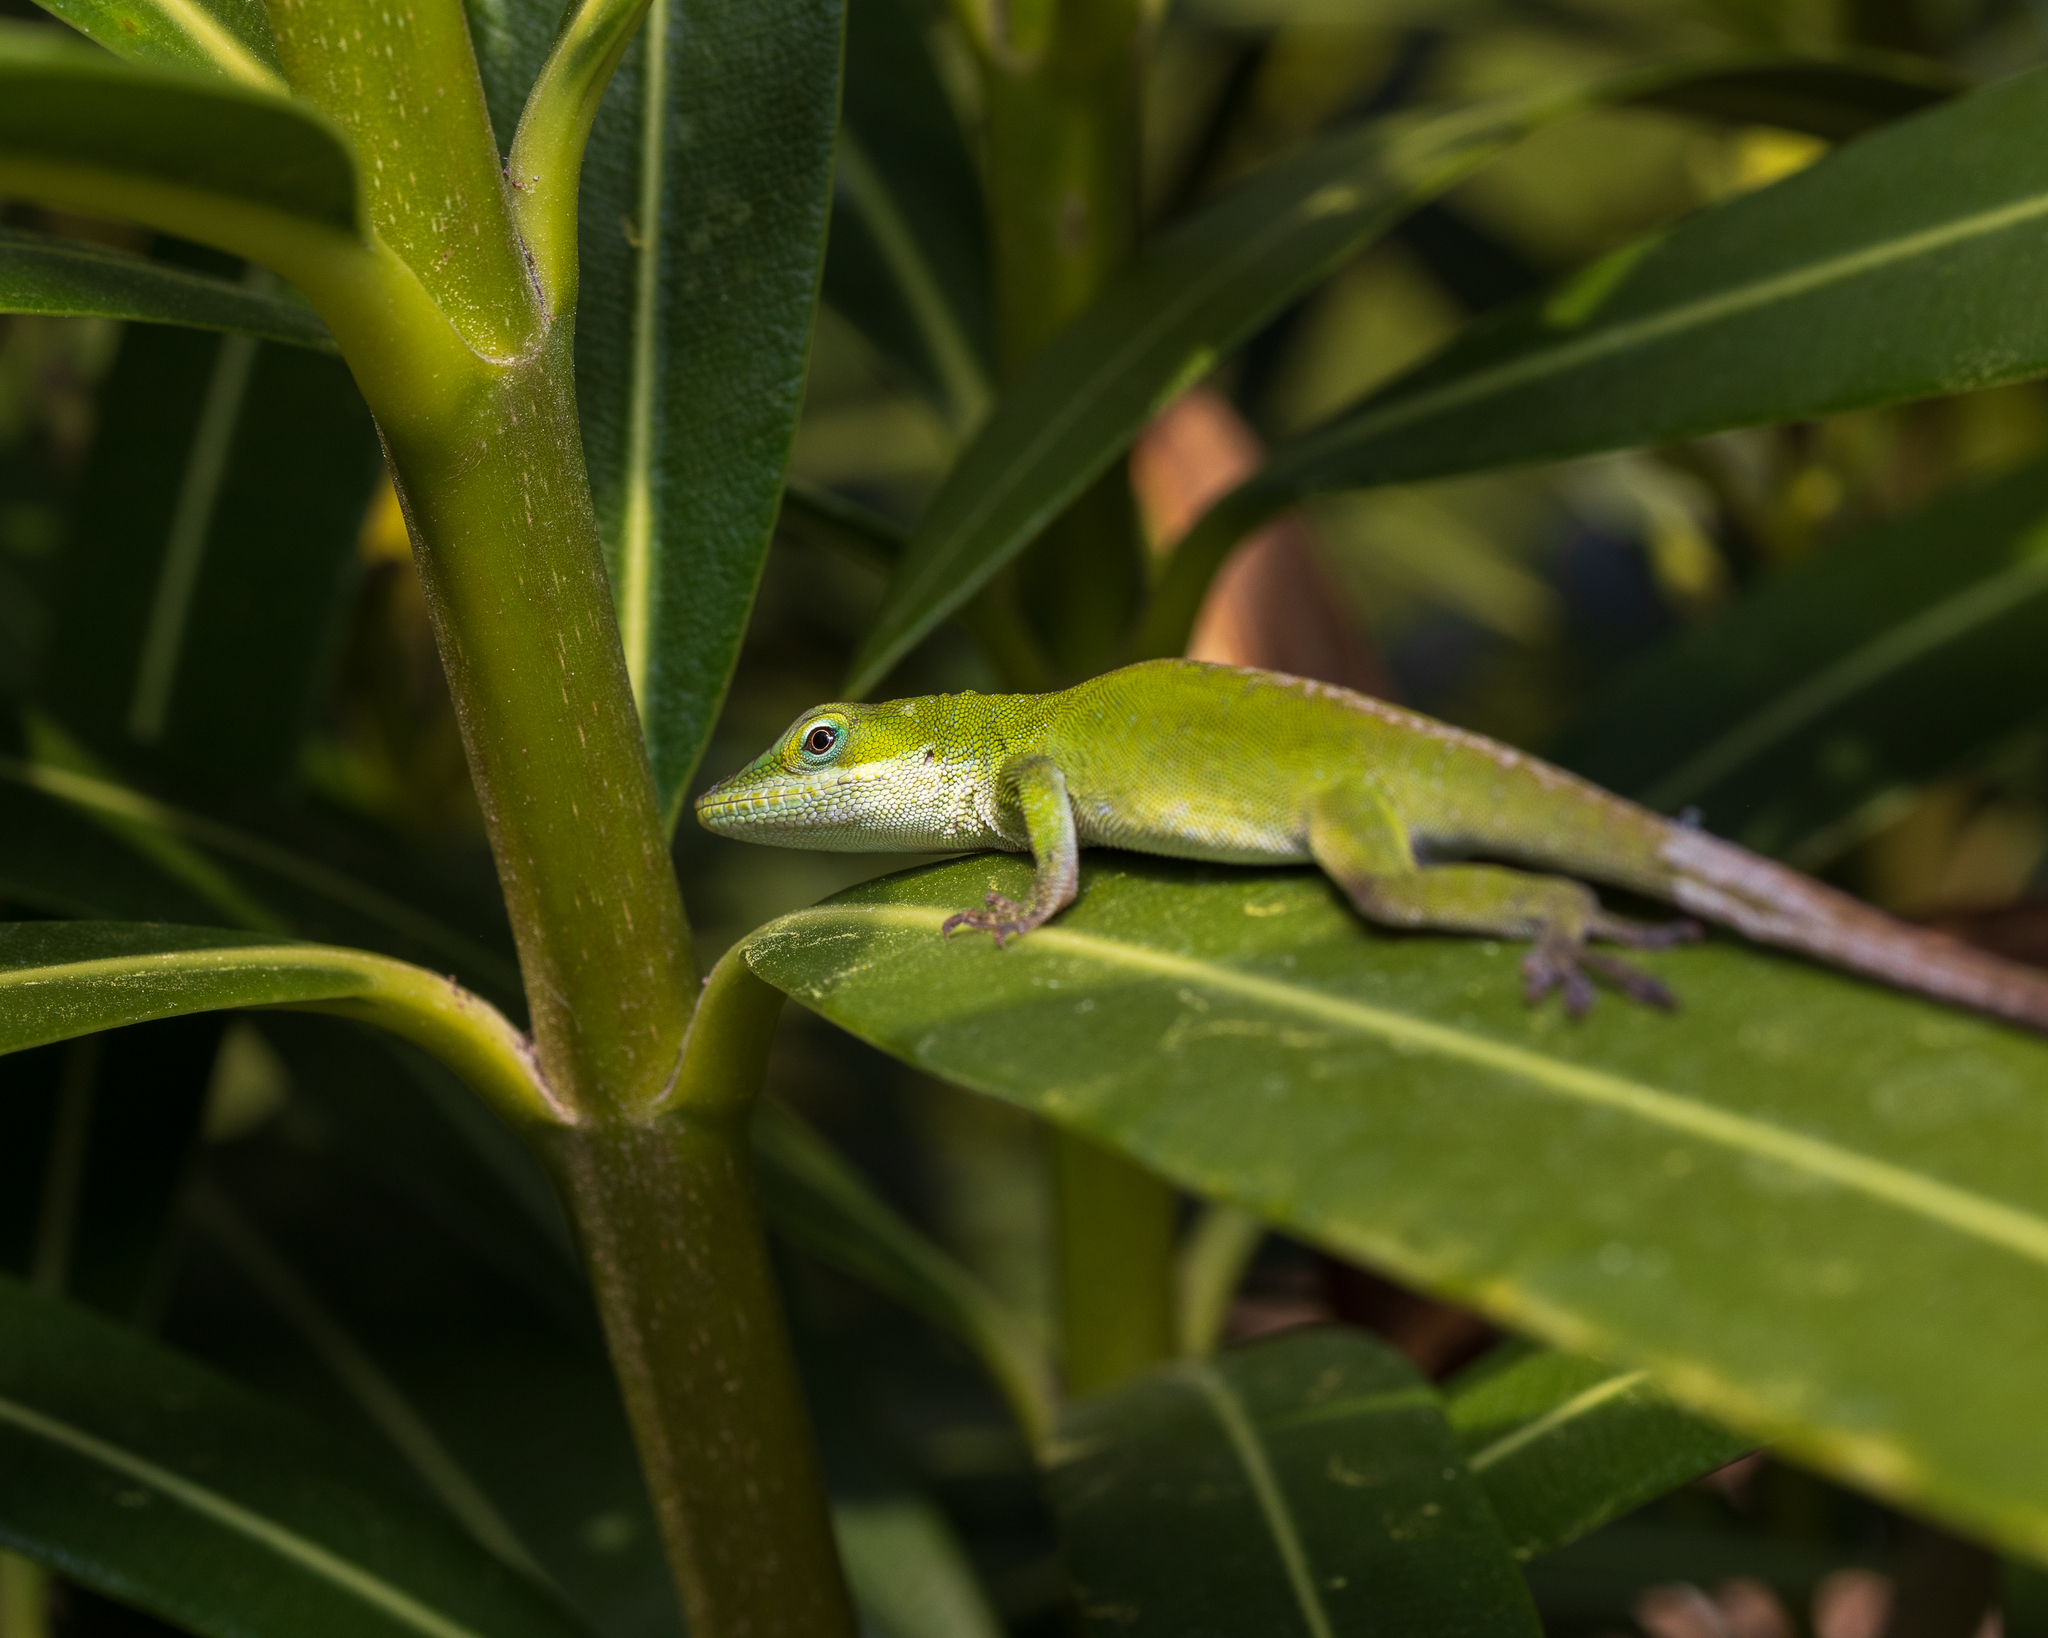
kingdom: Animalia
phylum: Chordata
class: Squamata
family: Dactyloidae
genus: Anolis
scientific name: Anolis carolinensis
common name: Green anole
